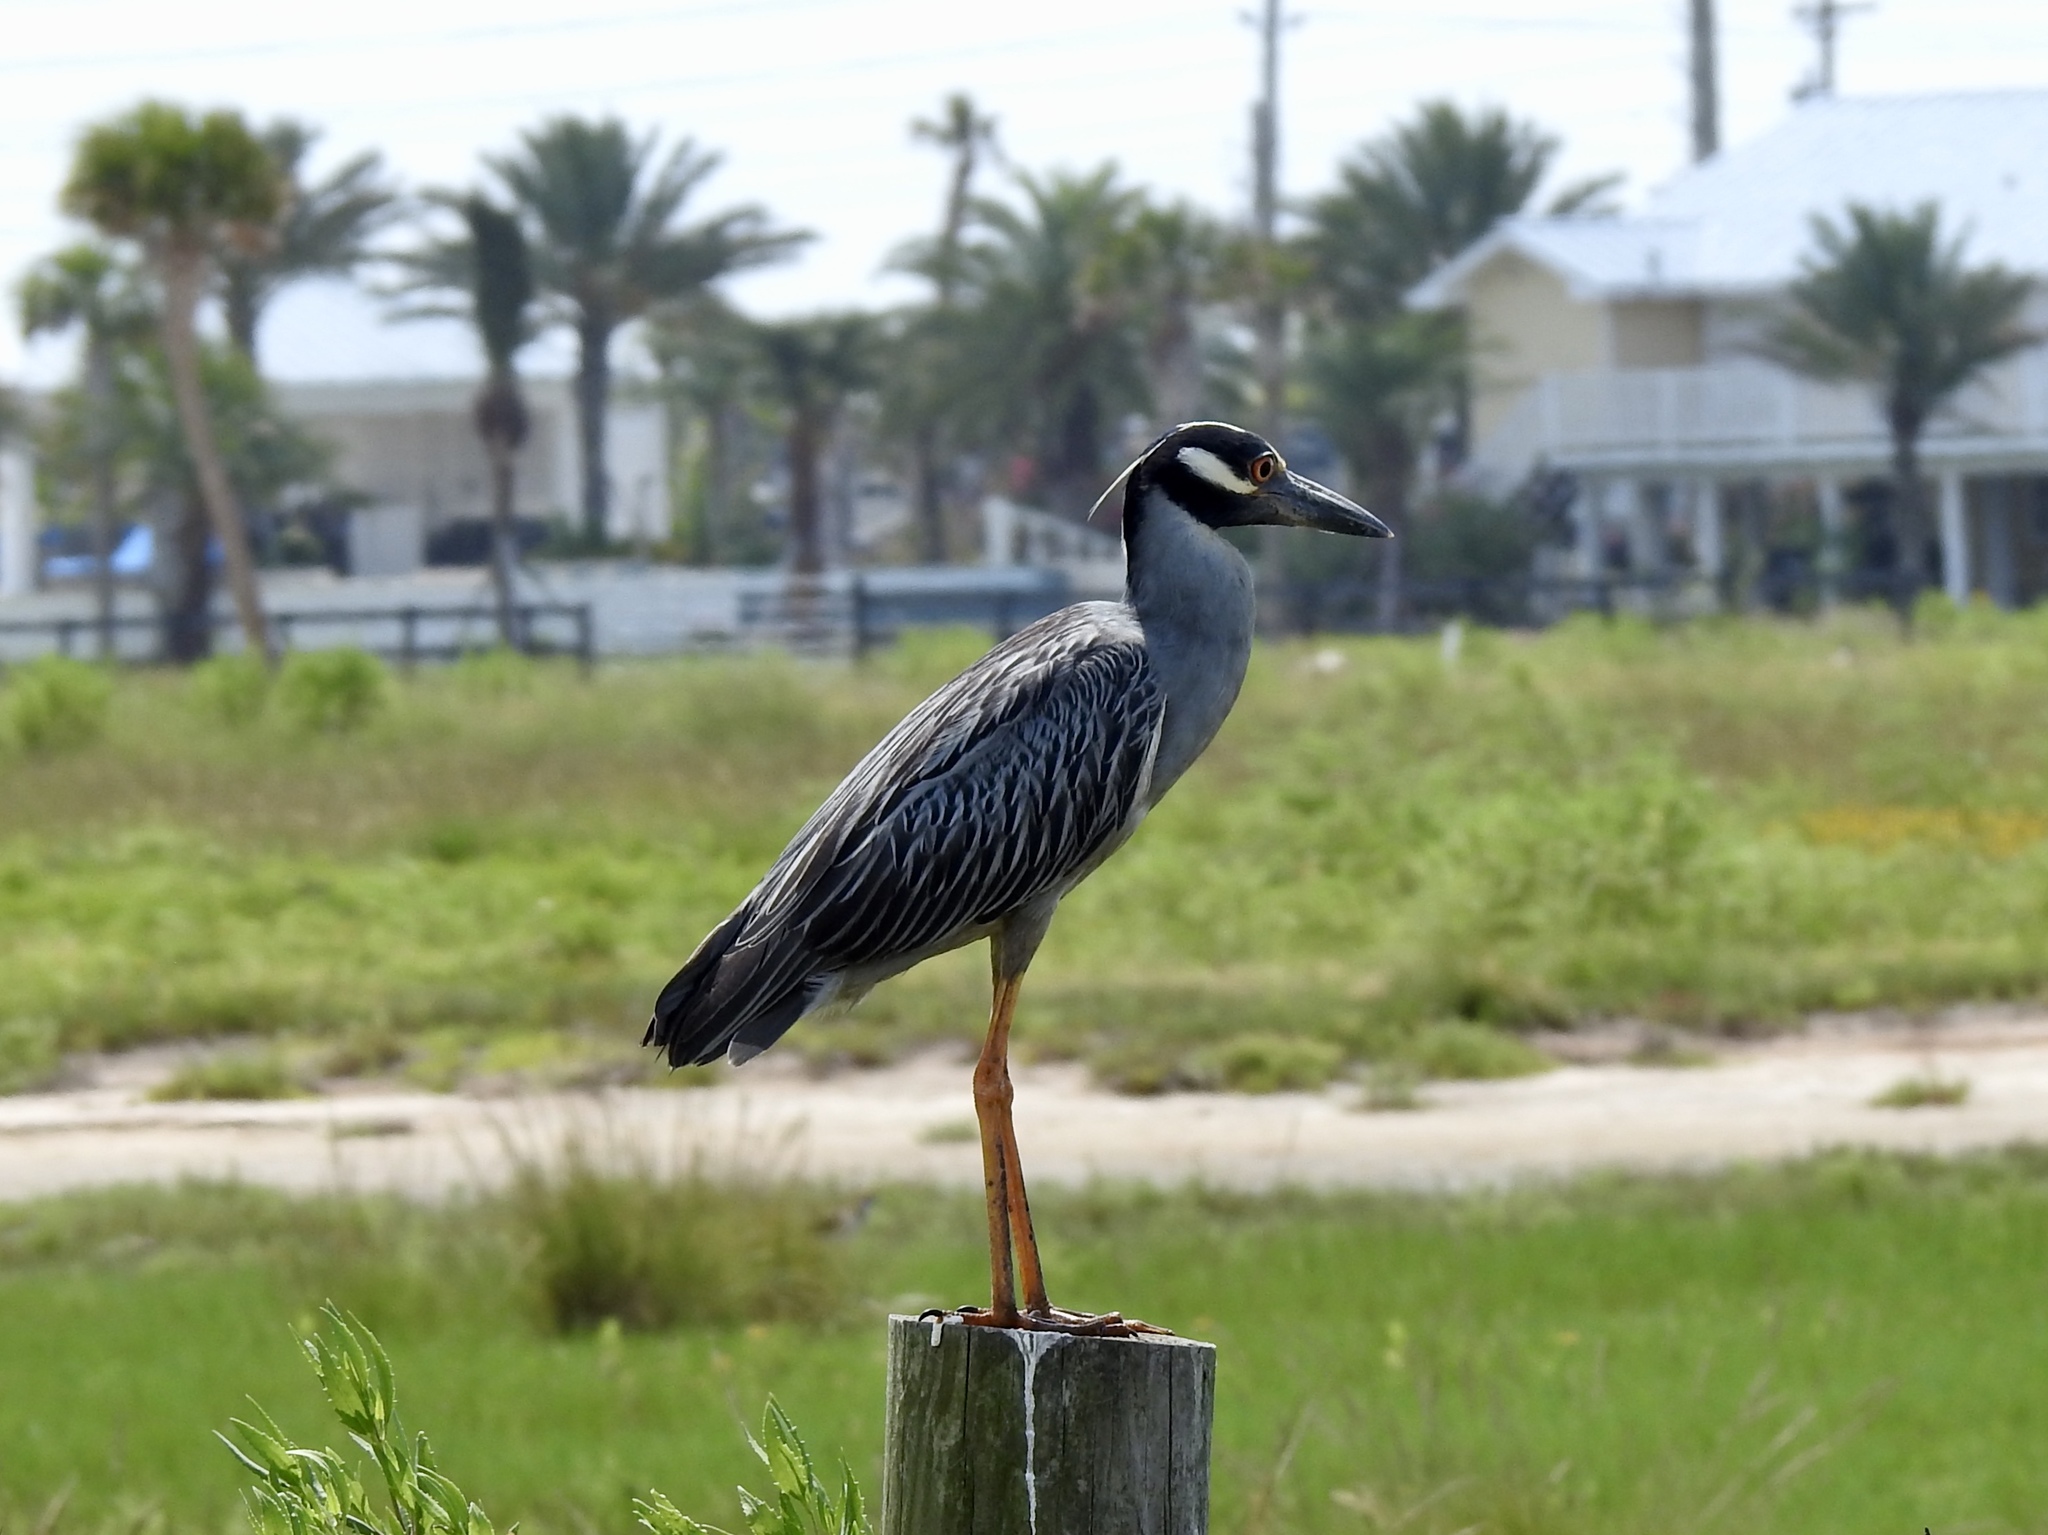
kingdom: Animalia
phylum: Chordata
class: Aves
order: Pelecaniformes
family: Ardeidae
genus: Nyctanassa
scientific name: Nyctanassa violacea
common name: Yellow-crowned night heron
